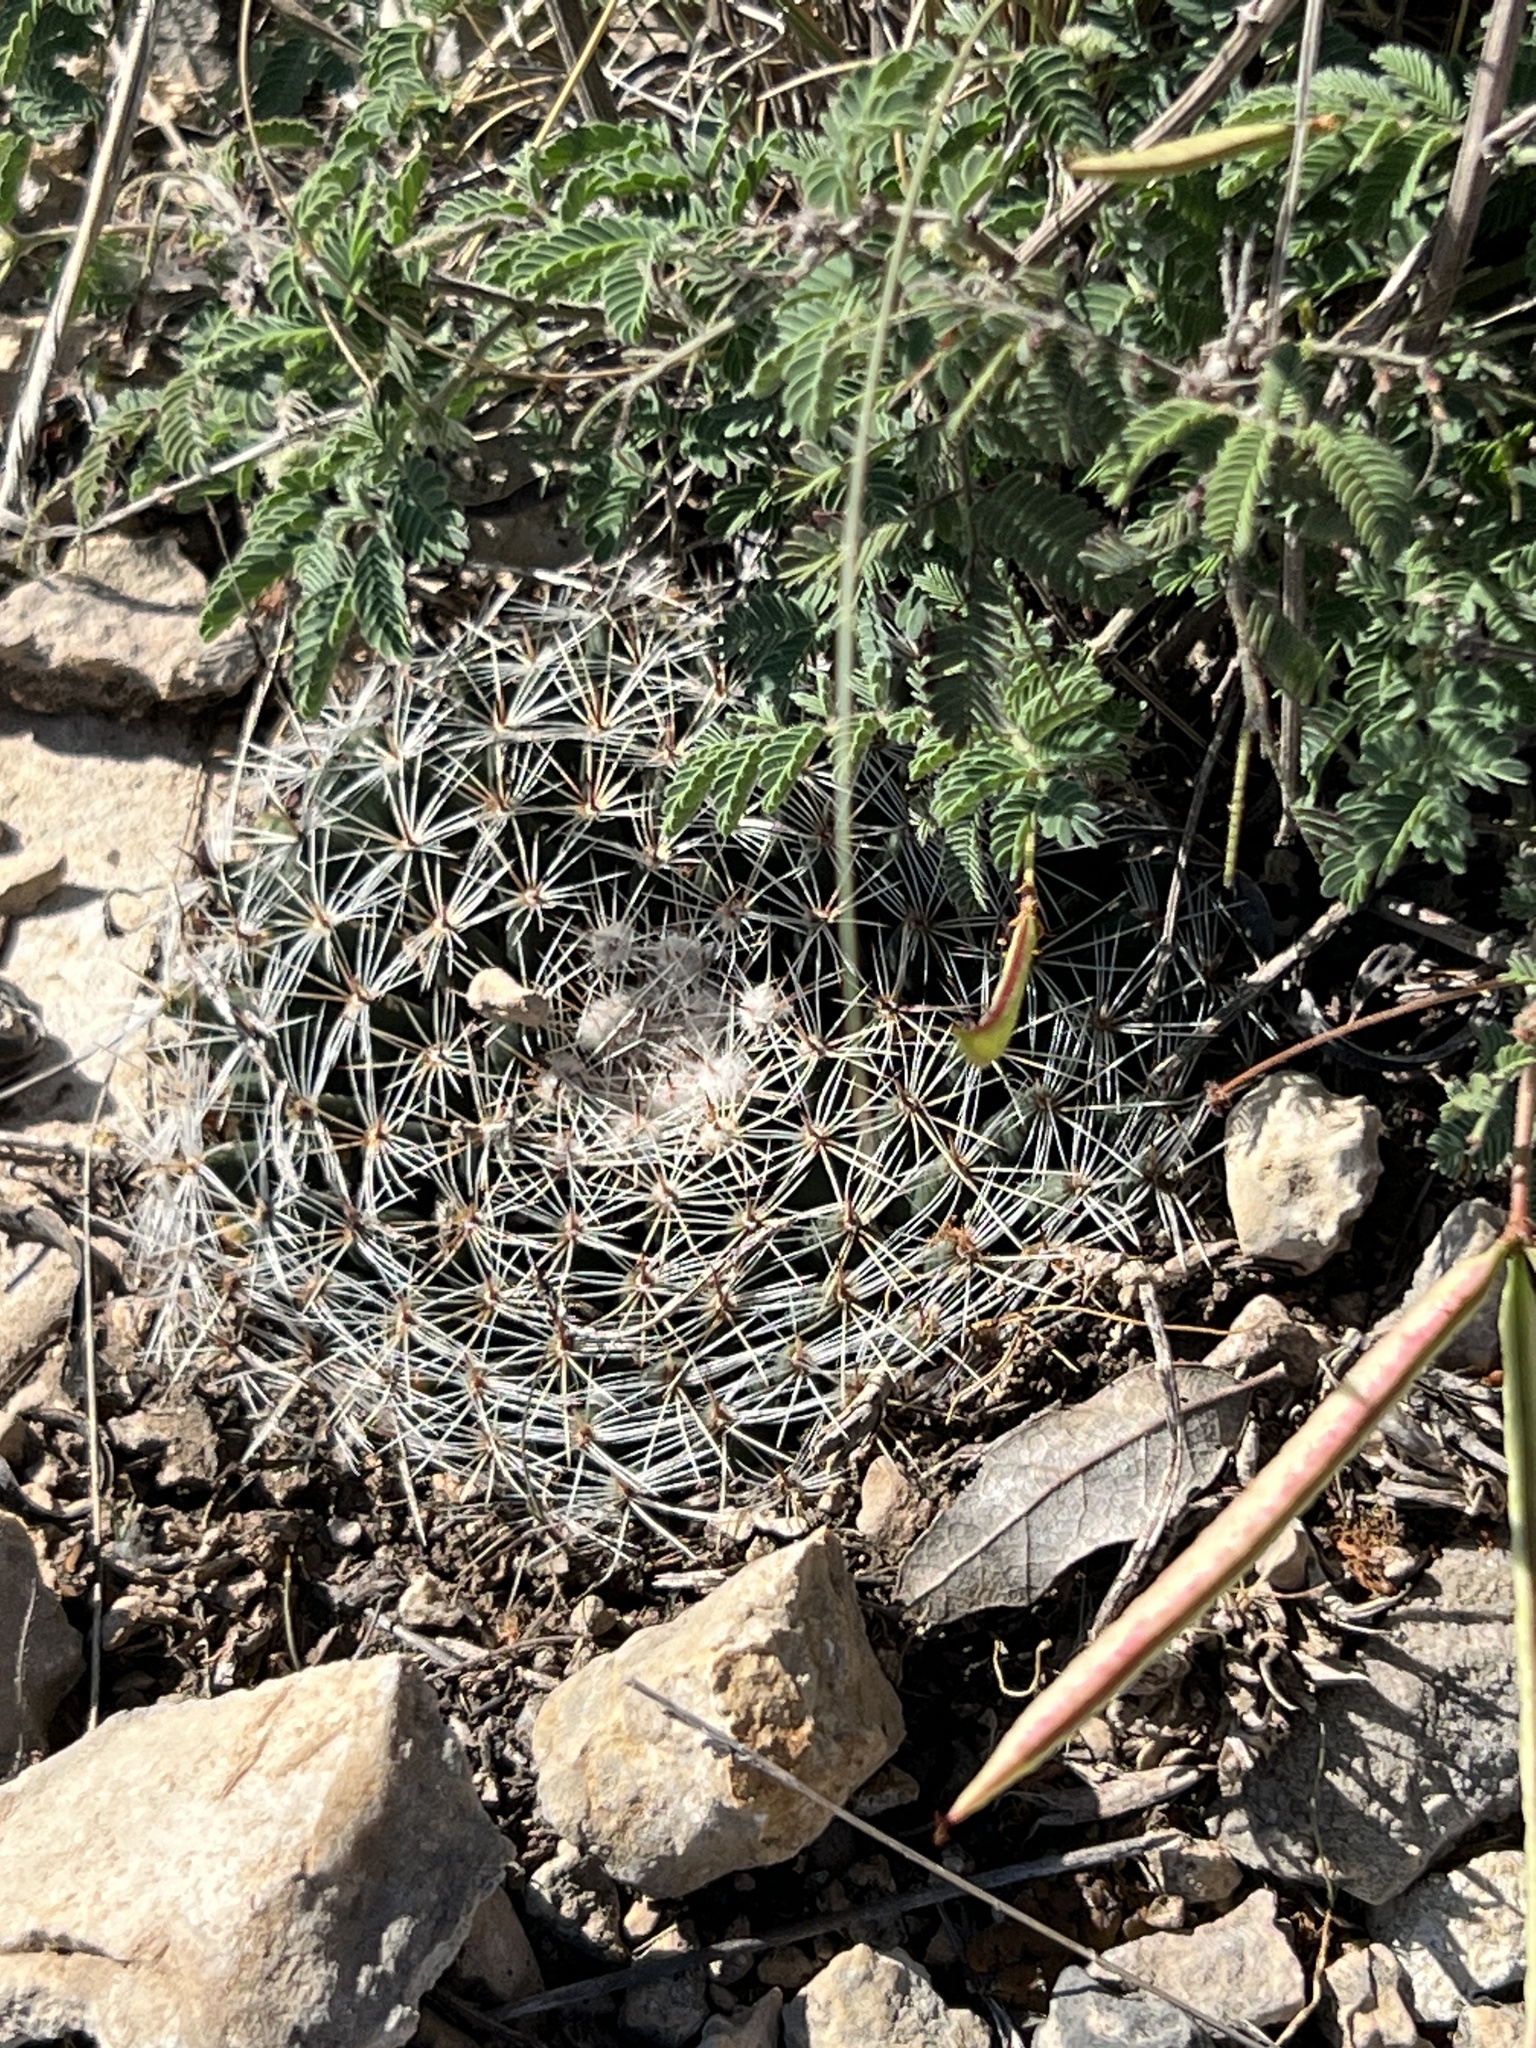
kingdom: Plantae
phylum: Tracheophyta
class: Magnoliopsida
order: Caryophyllales
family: Cactaceae
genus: Mammillaria
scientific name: Mammillaria heyderi
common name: Little nipple cactus
